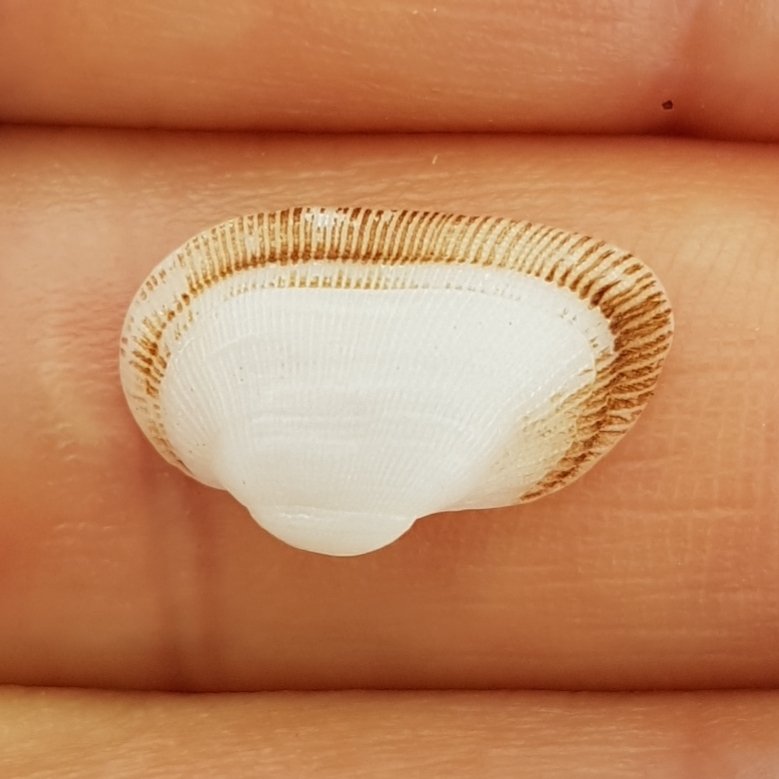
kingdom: Animalia
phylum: Mollusca
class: Bivalvia
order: Arcida
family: Noetiidae
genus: Striarca
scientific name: Striarca lactea
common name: Milky-white ark
